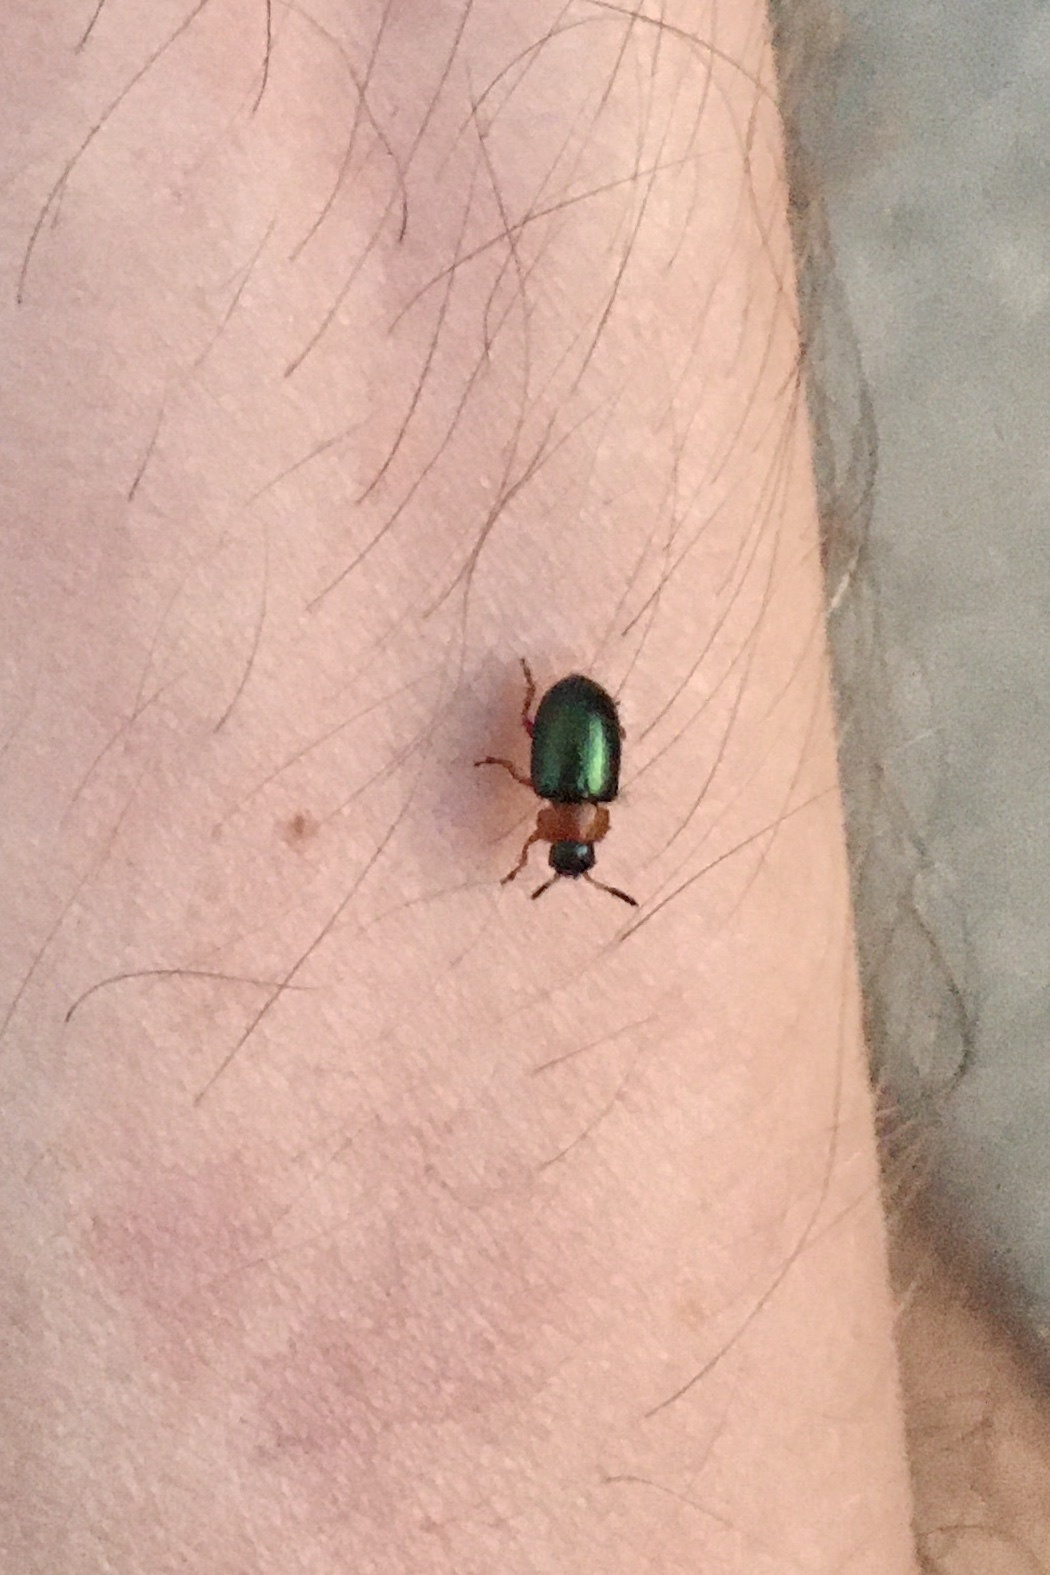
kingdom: Animalia
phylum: Arthropoda
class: Insecta
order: Coleoptera
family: Chrysomelidae
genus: Gastrophysa
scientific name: Gastrophysa polygoni
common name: Knotweed leaf beetle
